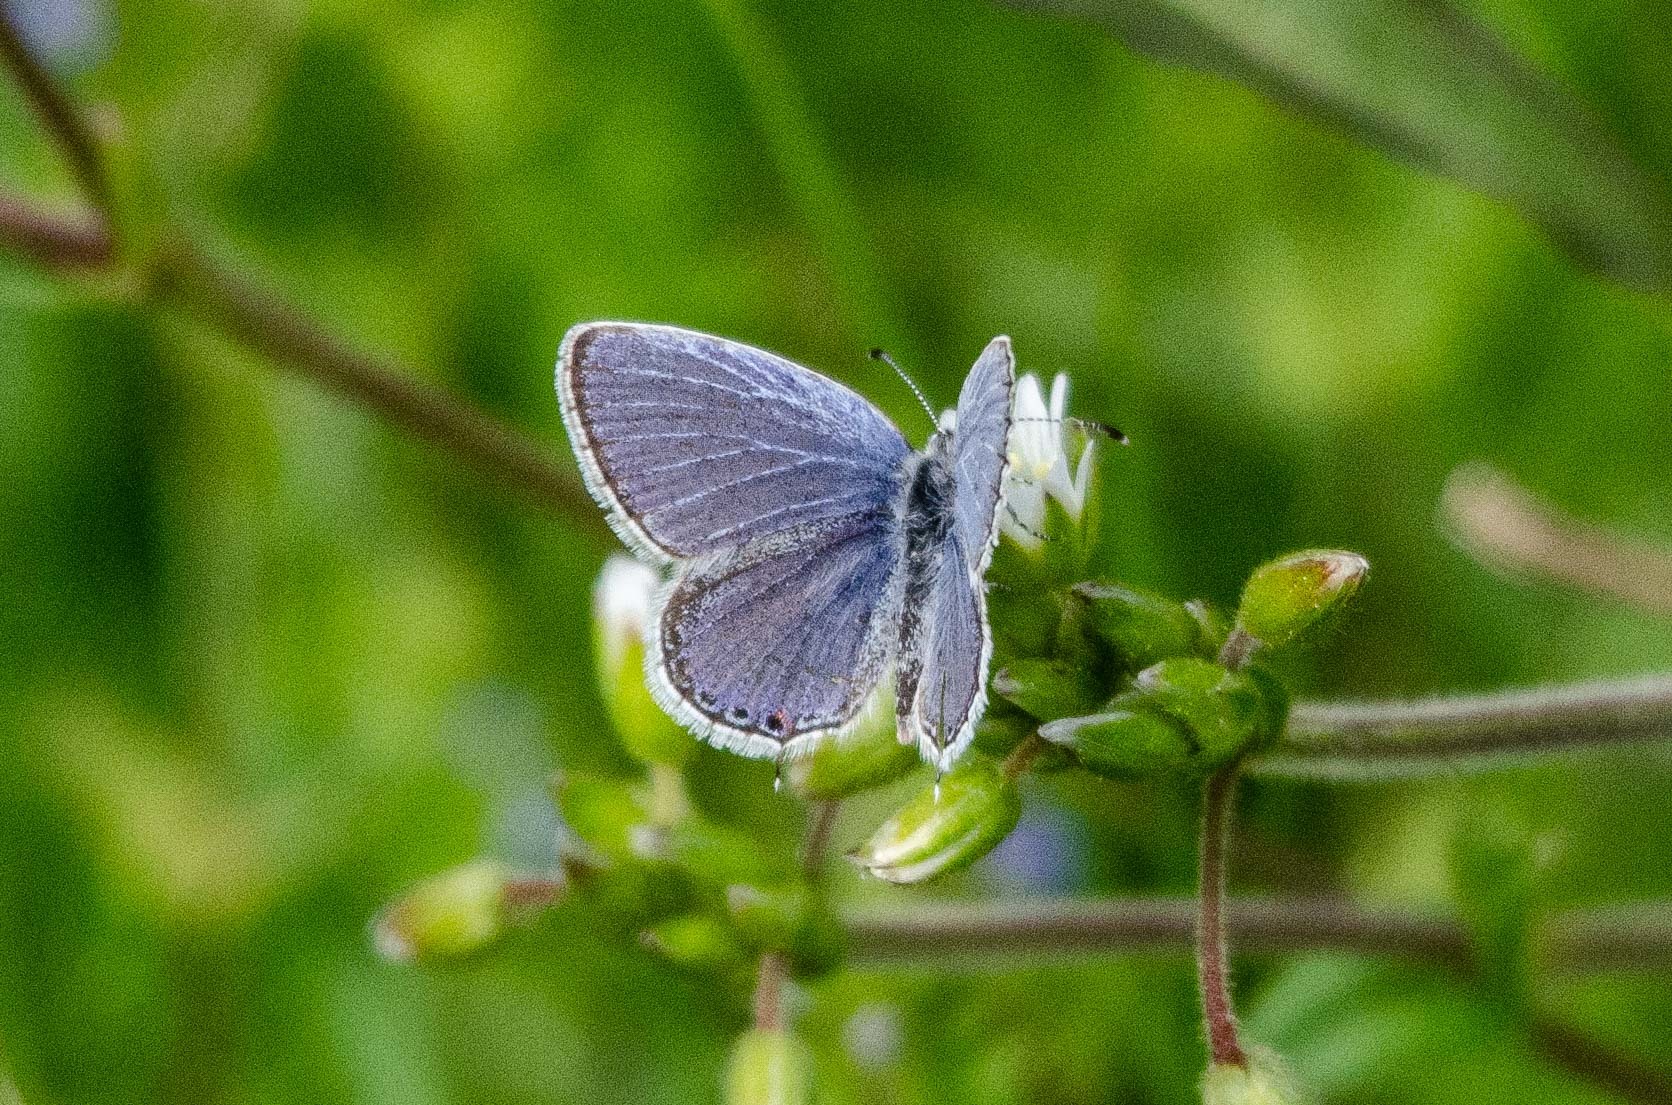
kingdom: Animalia
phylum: Arthropoda
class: Insecta
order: Lepidoptera
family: Lycaenidae
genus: Elkalyce
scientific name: Elkalyce comyntas
